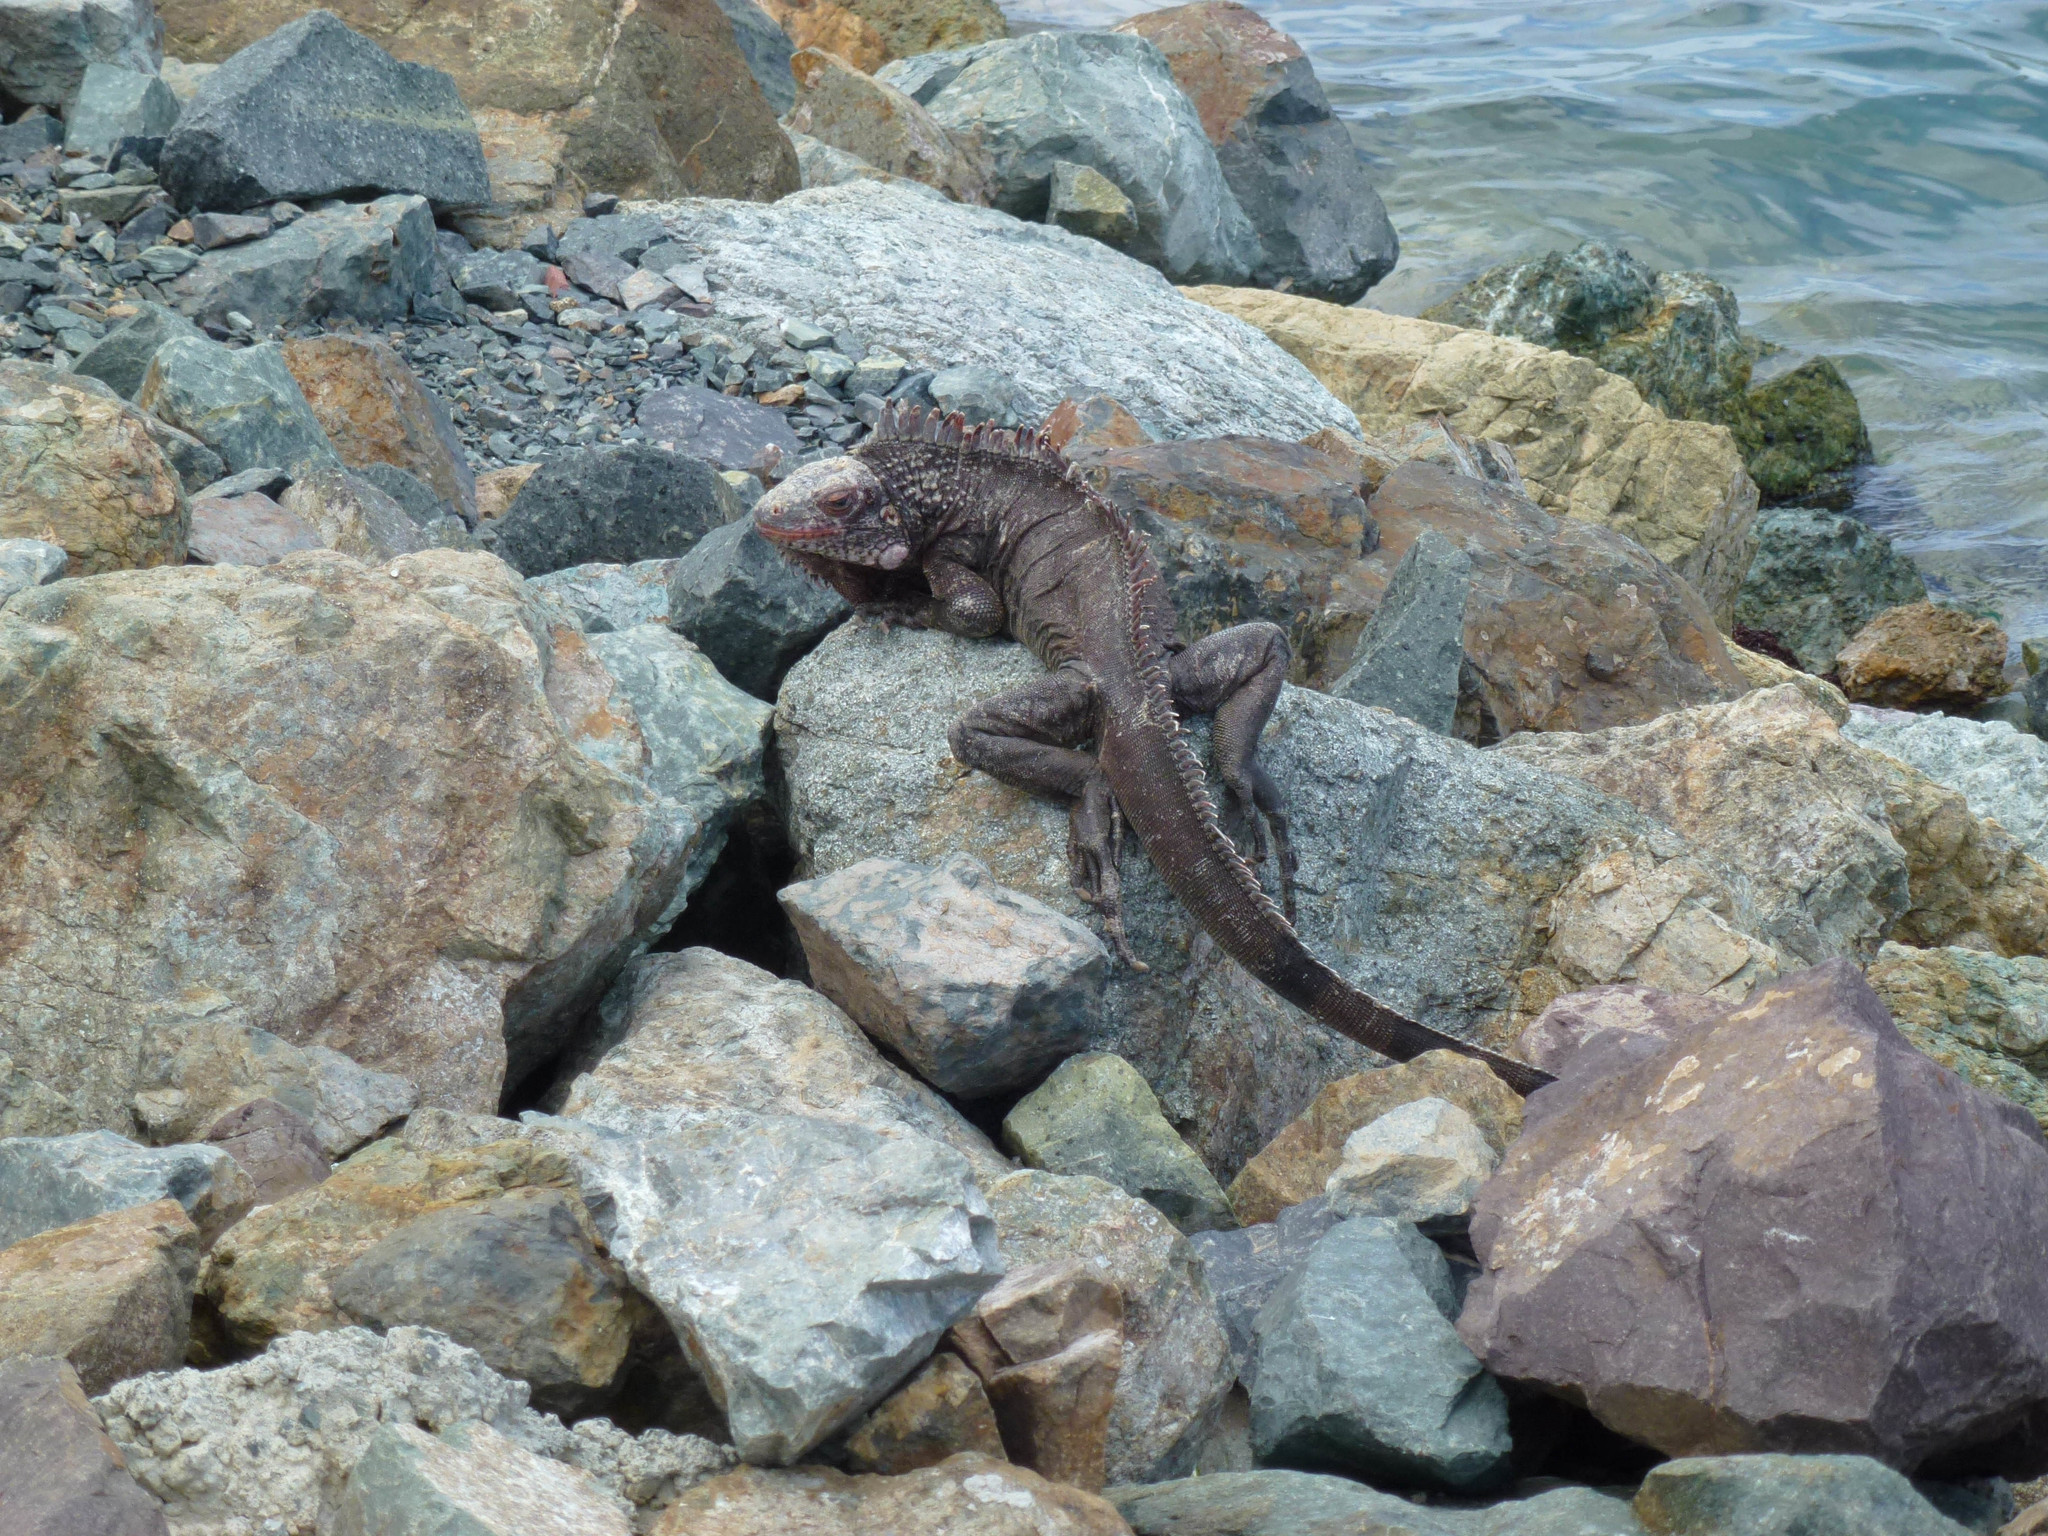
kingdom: Animalia
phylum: Chordata
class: Squamata
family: Iguanidae
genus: Iguana
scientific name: Iguana iguana
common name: Green iguana
